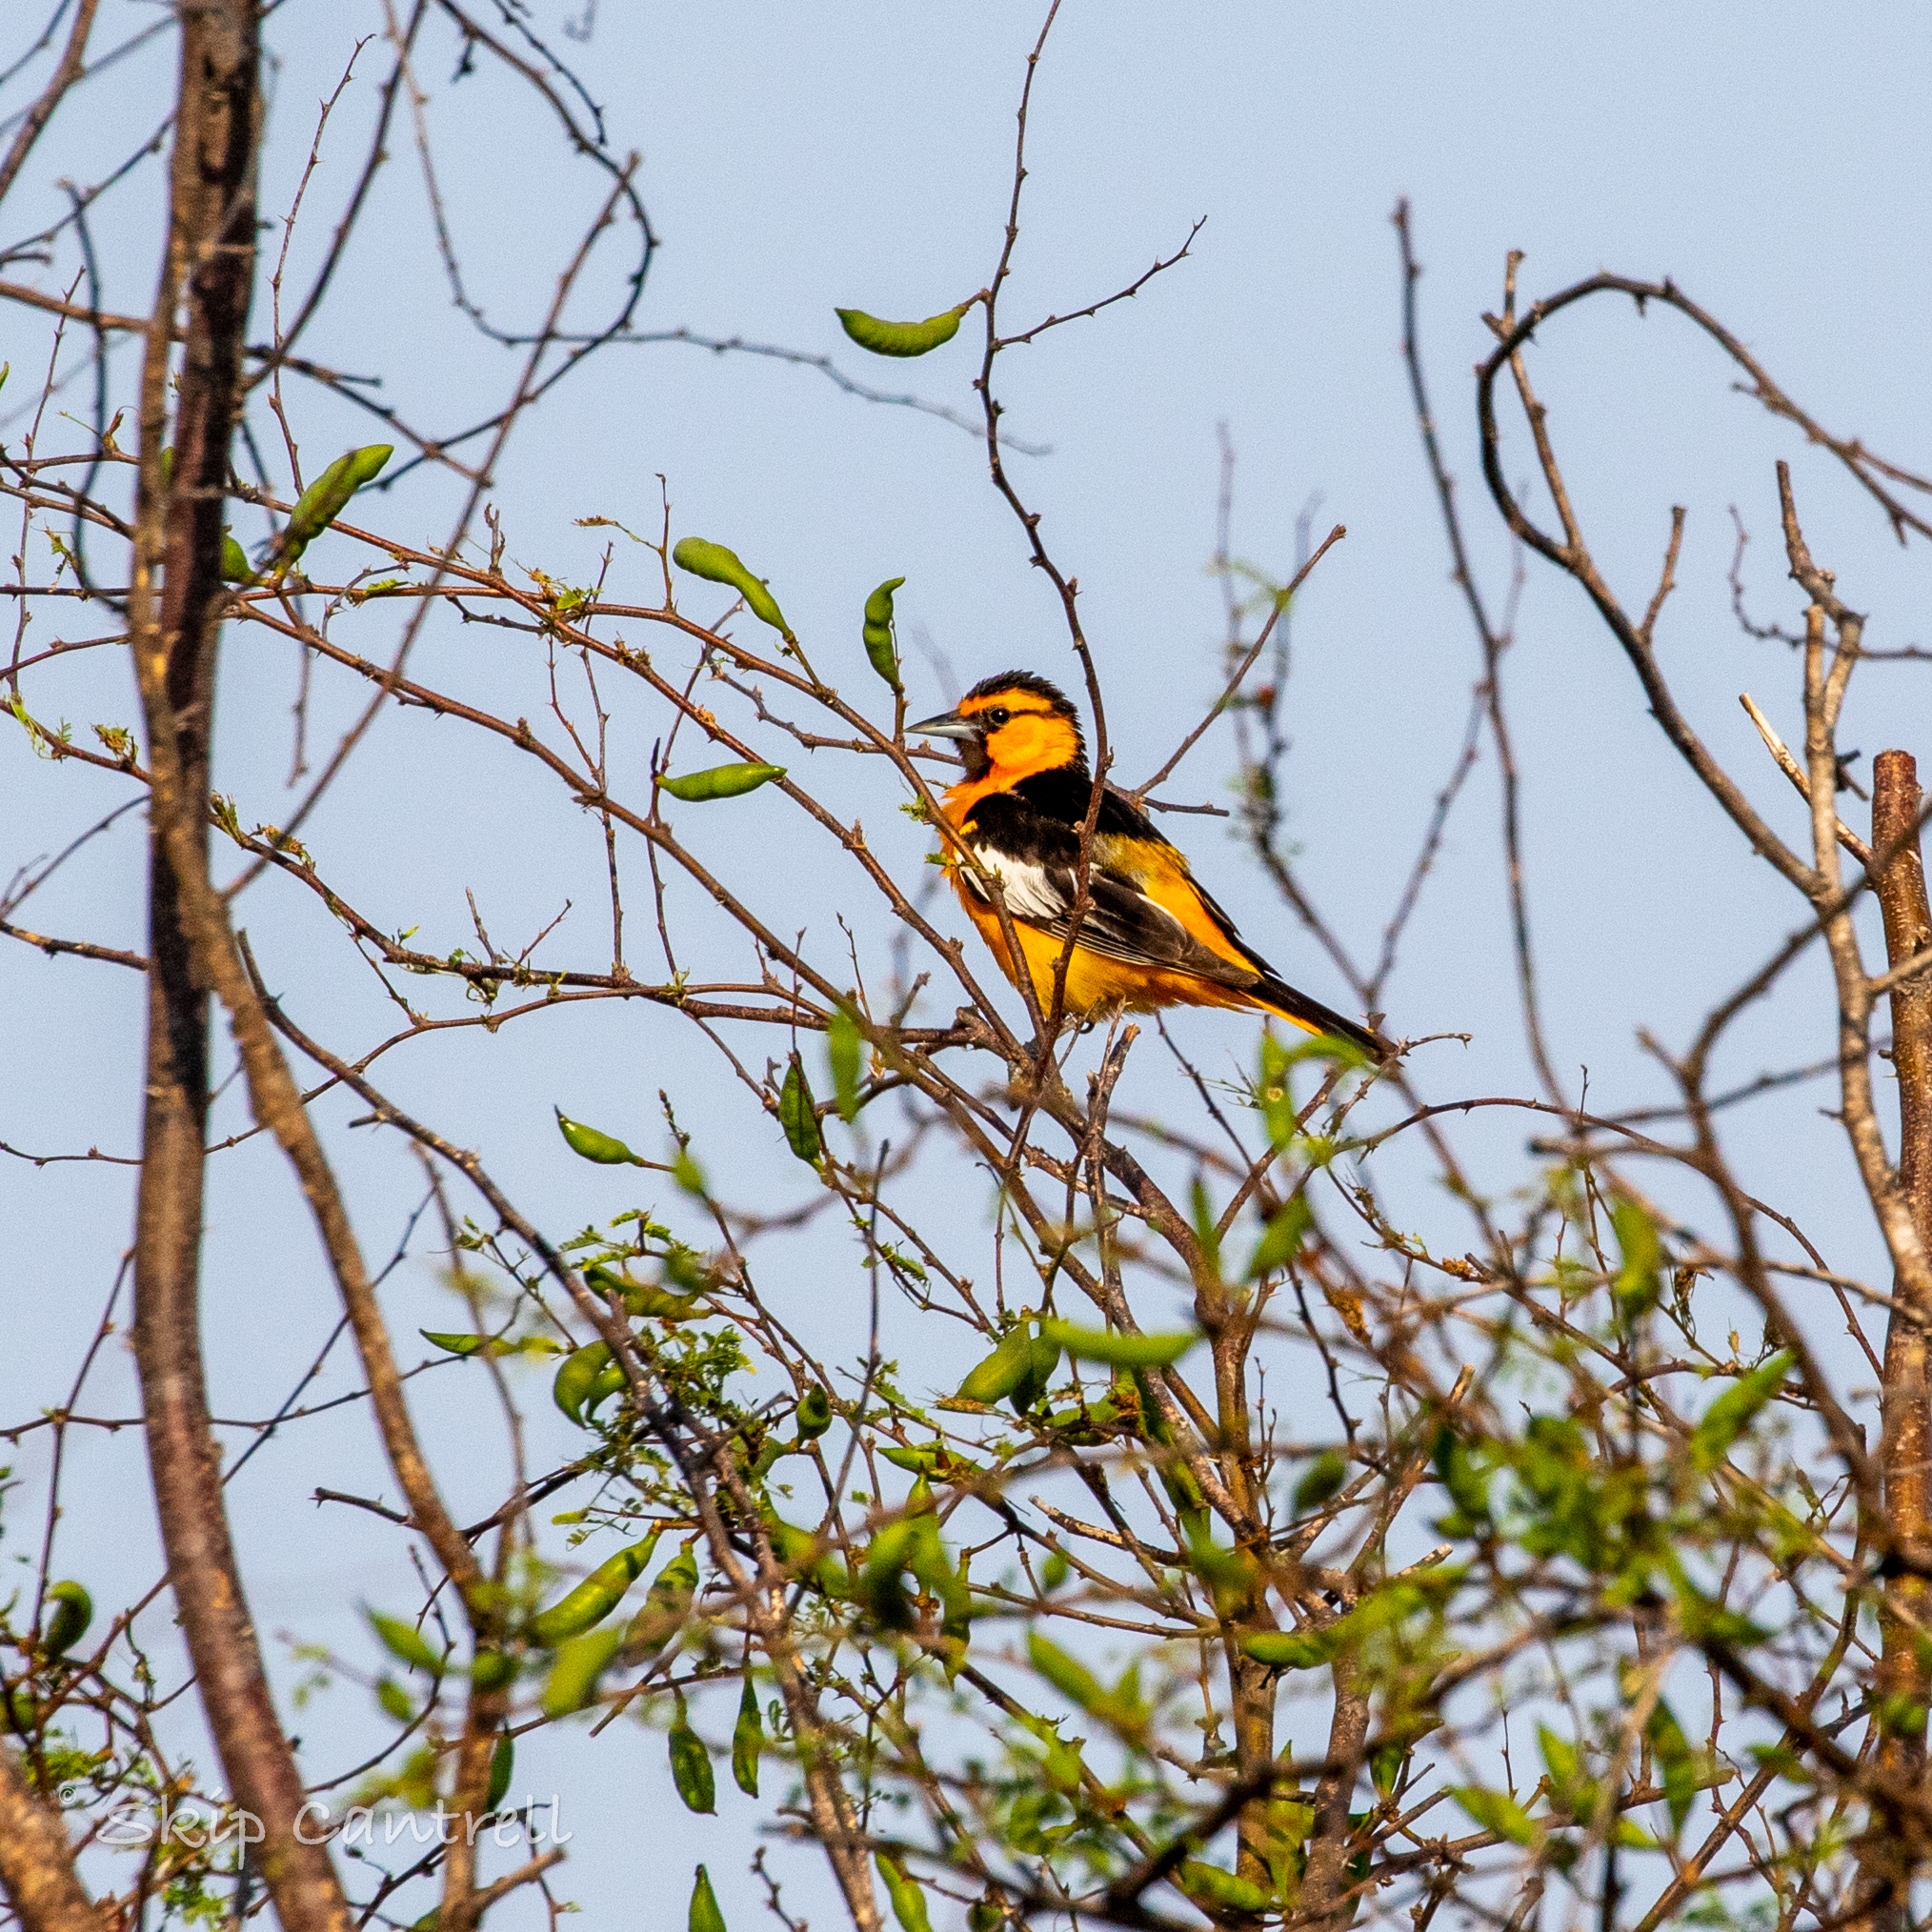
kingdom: Animalia
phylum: Chordata
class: Aves
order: Passeriformes
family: Icteridae
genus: Icterus
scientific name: Icterus bullockii
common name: Bullock's oriole
